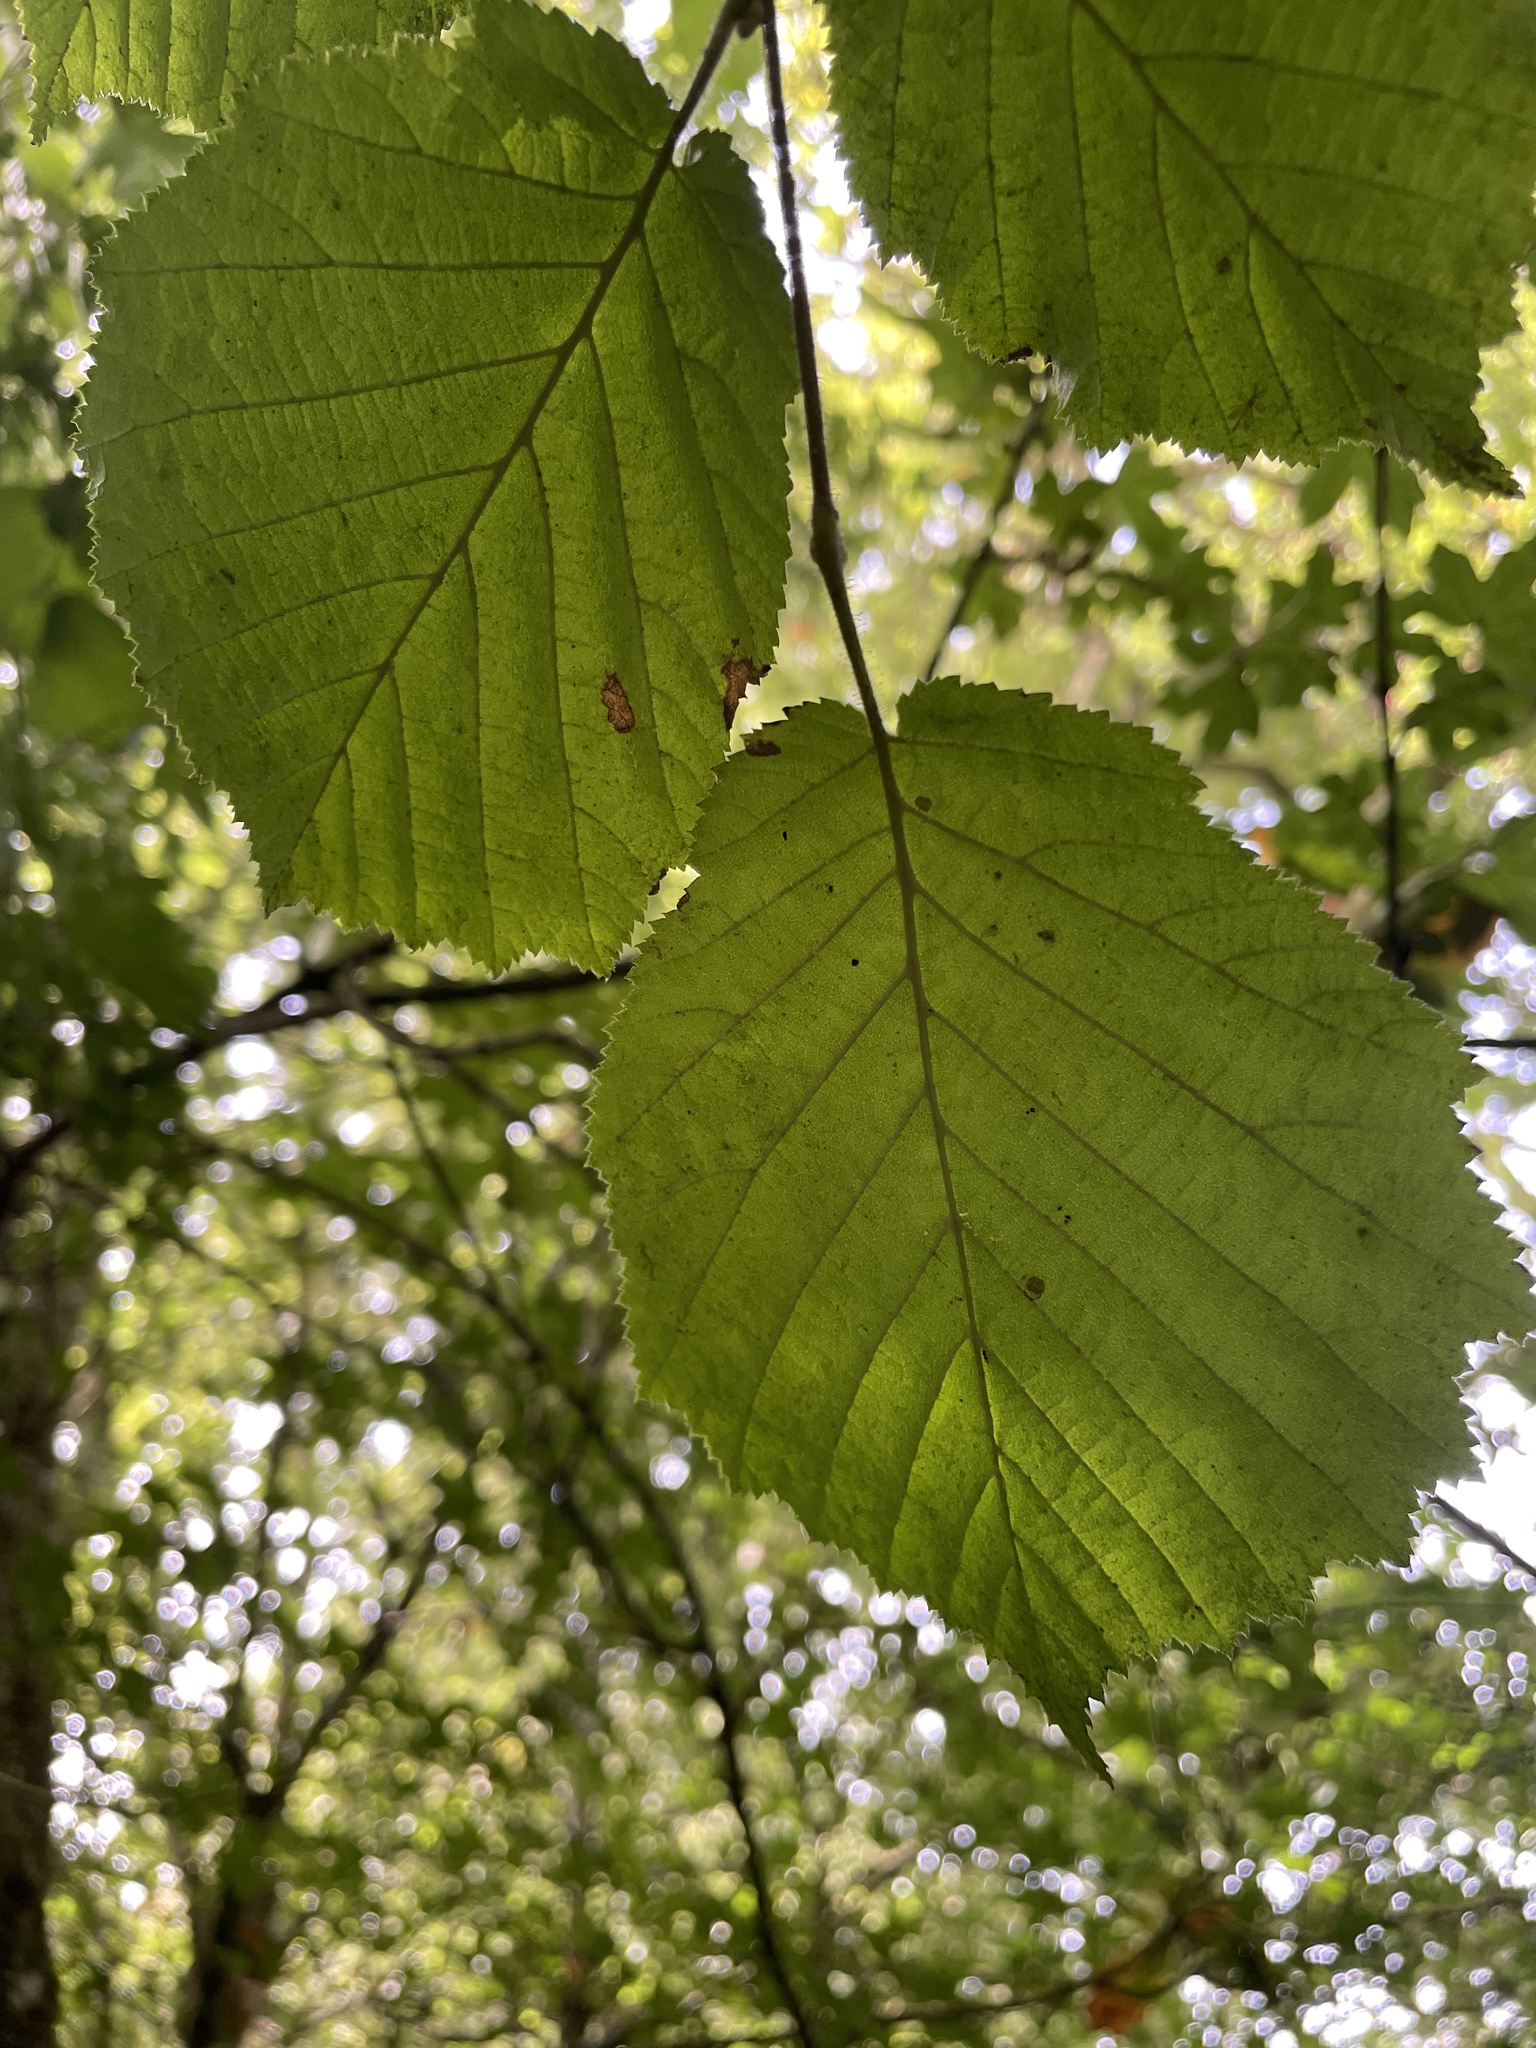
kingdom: Plantae
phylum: Tracheophyta
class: Magnoliopsida
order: Fagales
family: Betulaceae
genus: Corylus
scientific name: Corylus avellana
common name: European hazel
